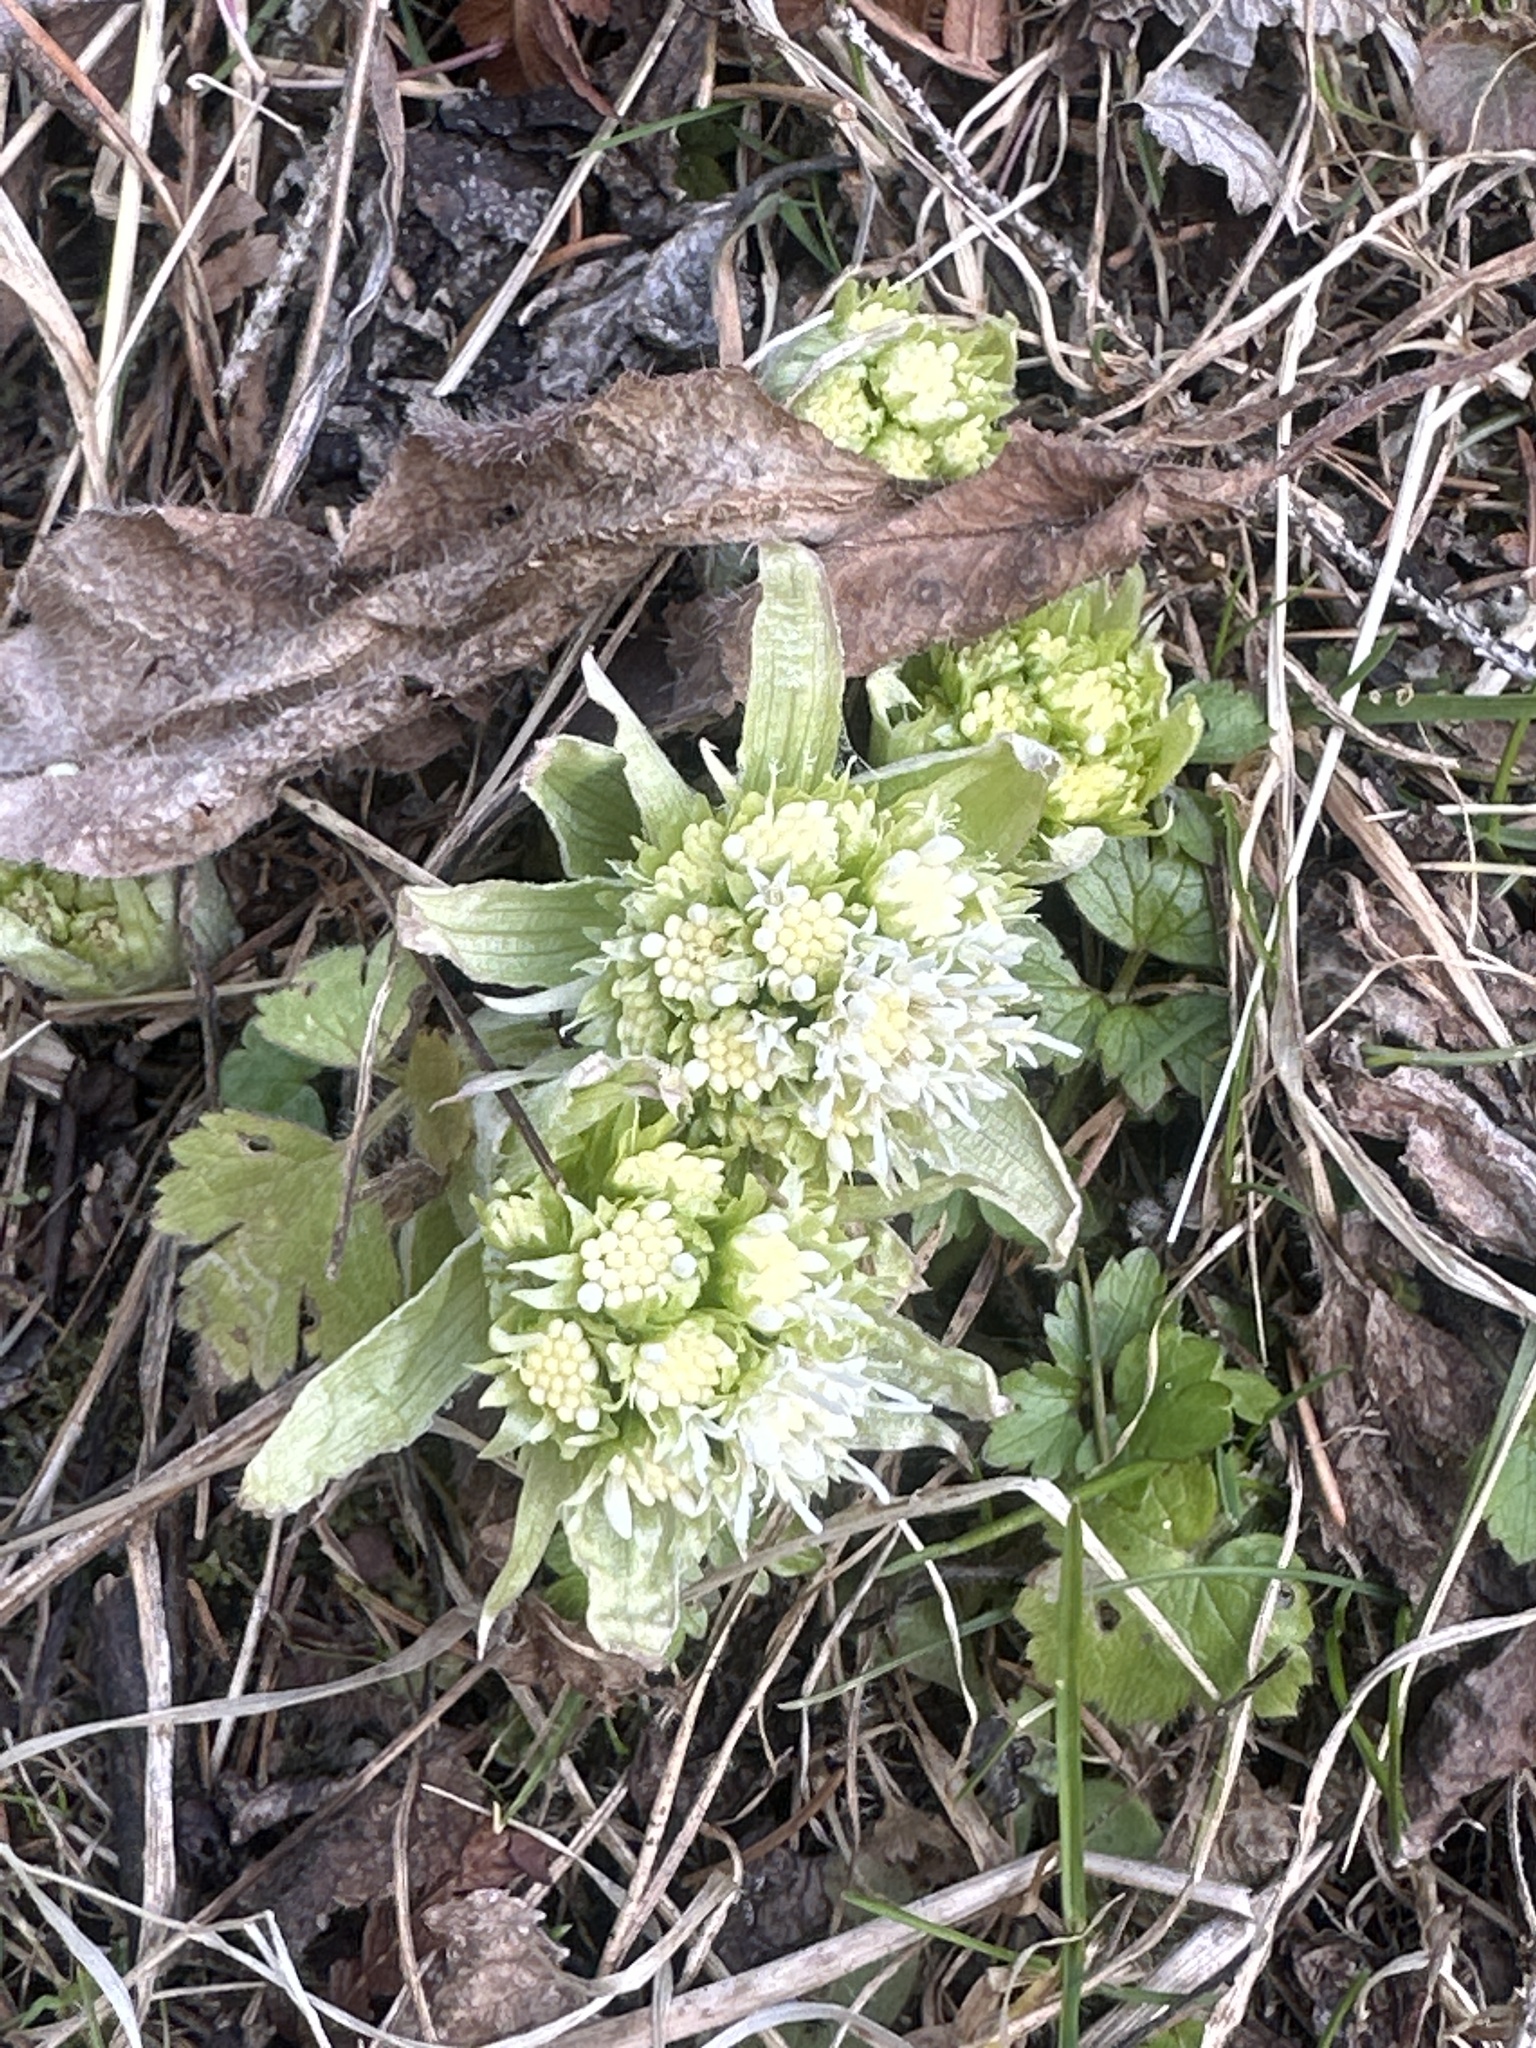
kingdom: Plantae
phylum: Tracheophyta
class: Magnoliopsida
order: Asterales
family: Asteraceae
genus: Petasites
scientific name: Petasites albus
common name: White butterbur
